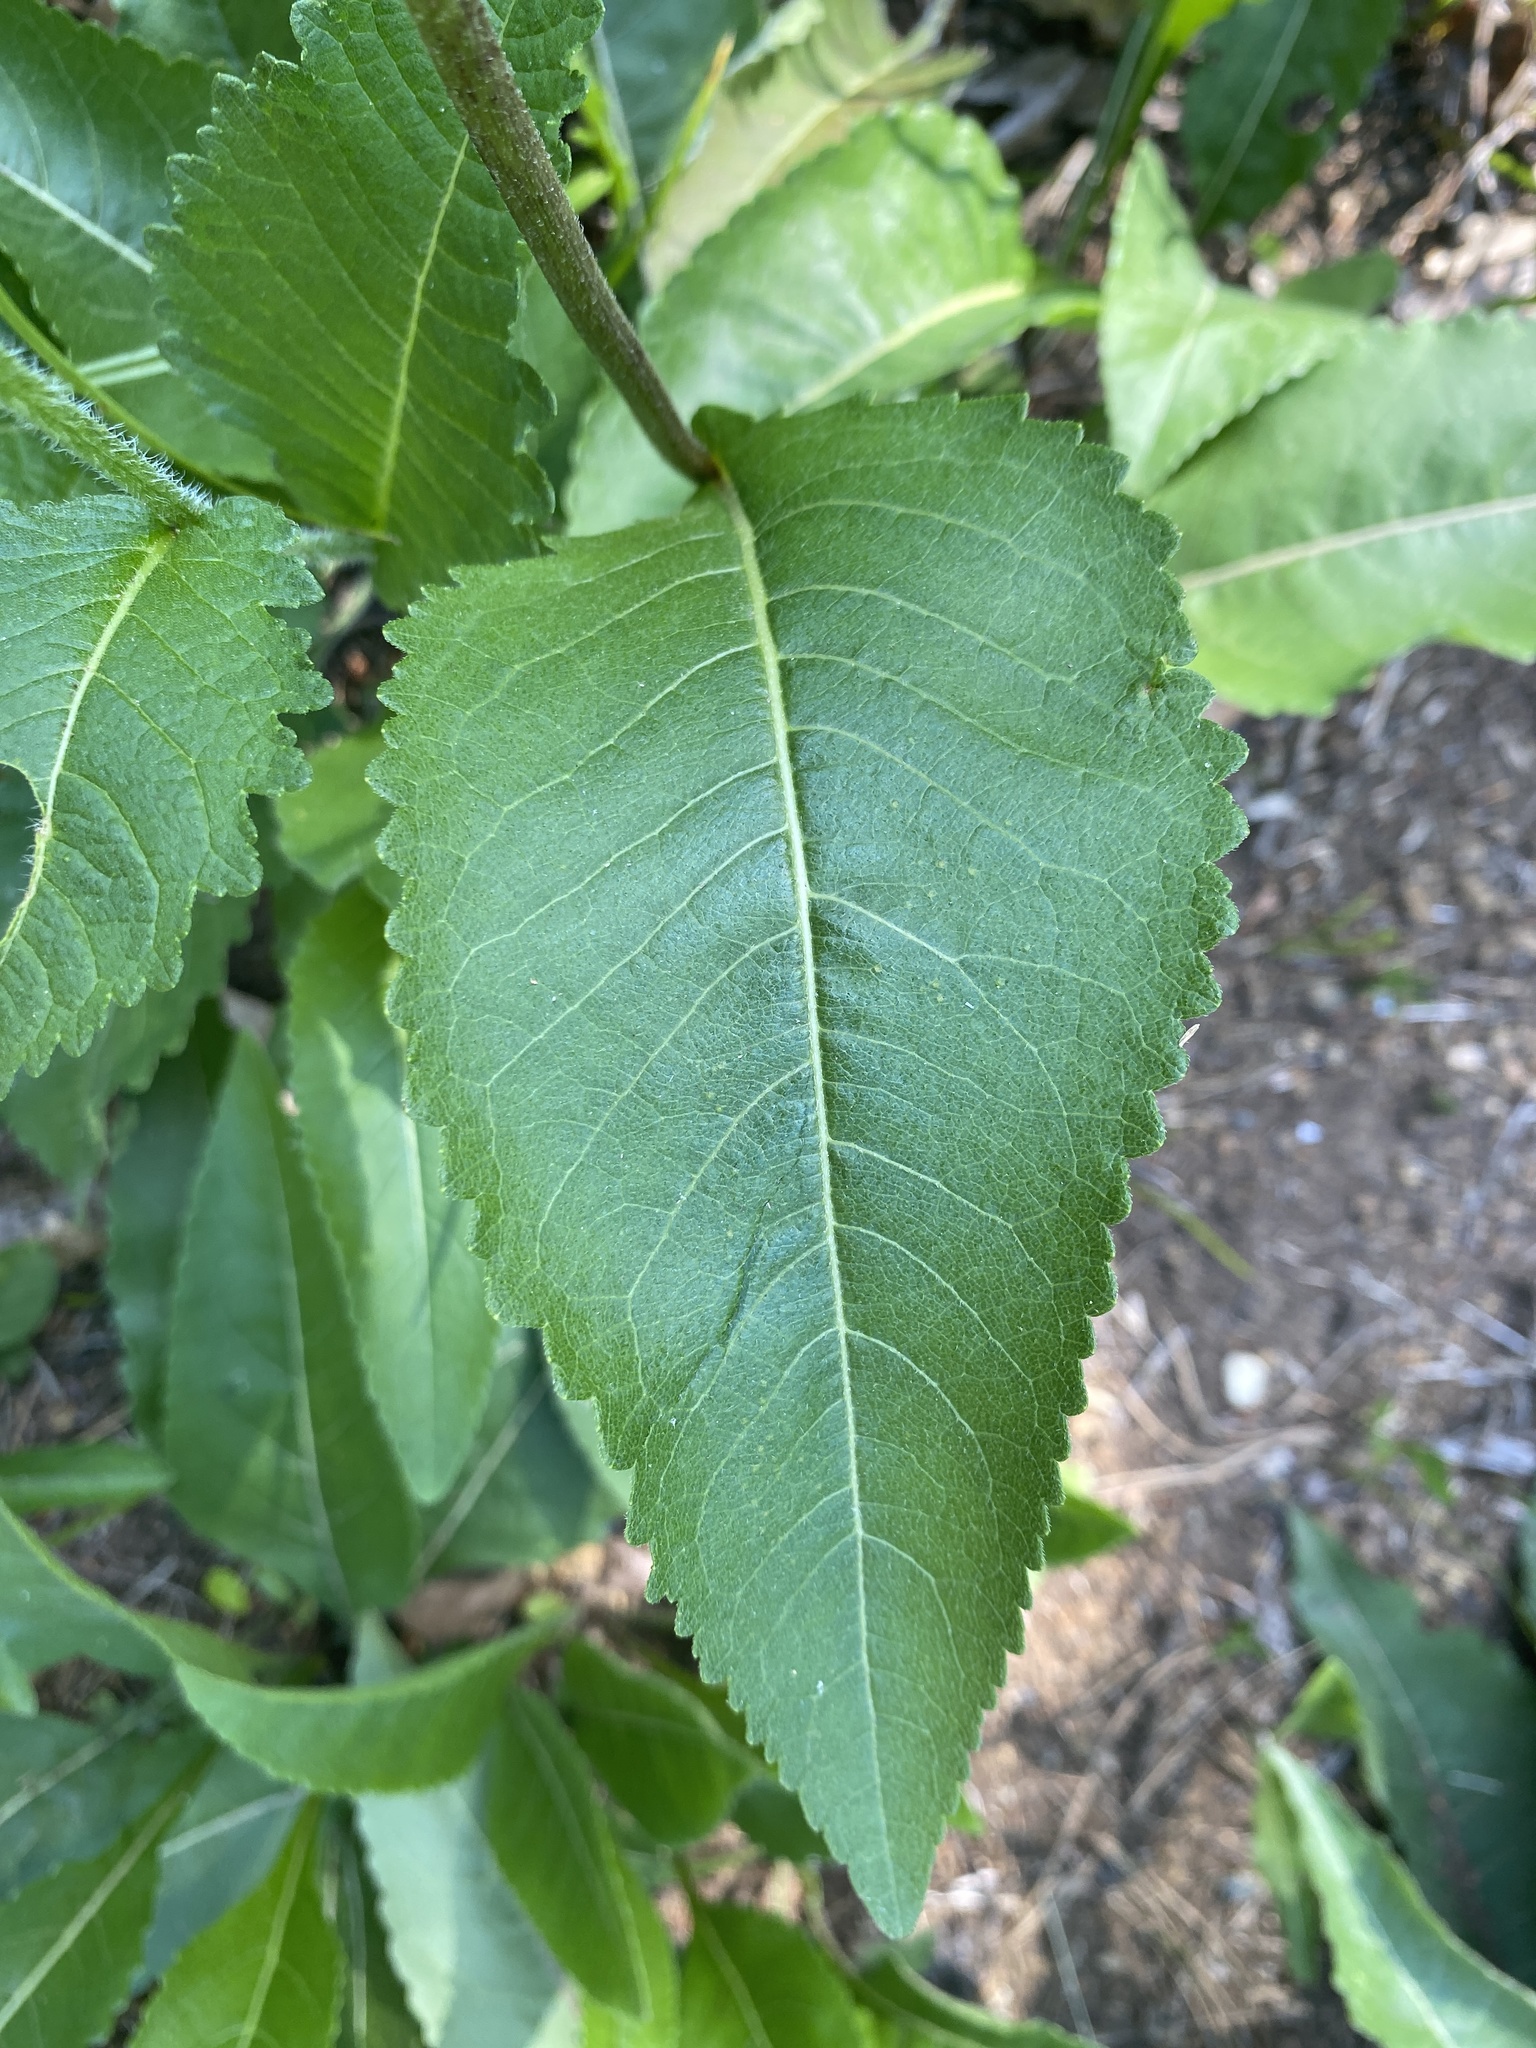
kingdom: Plantae
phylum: Tracheophyta
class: Magnoliopsida
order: Asterales
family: Asteraceae
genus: Parthenium
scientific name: Parthenium integrifolium
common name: American feverfew
